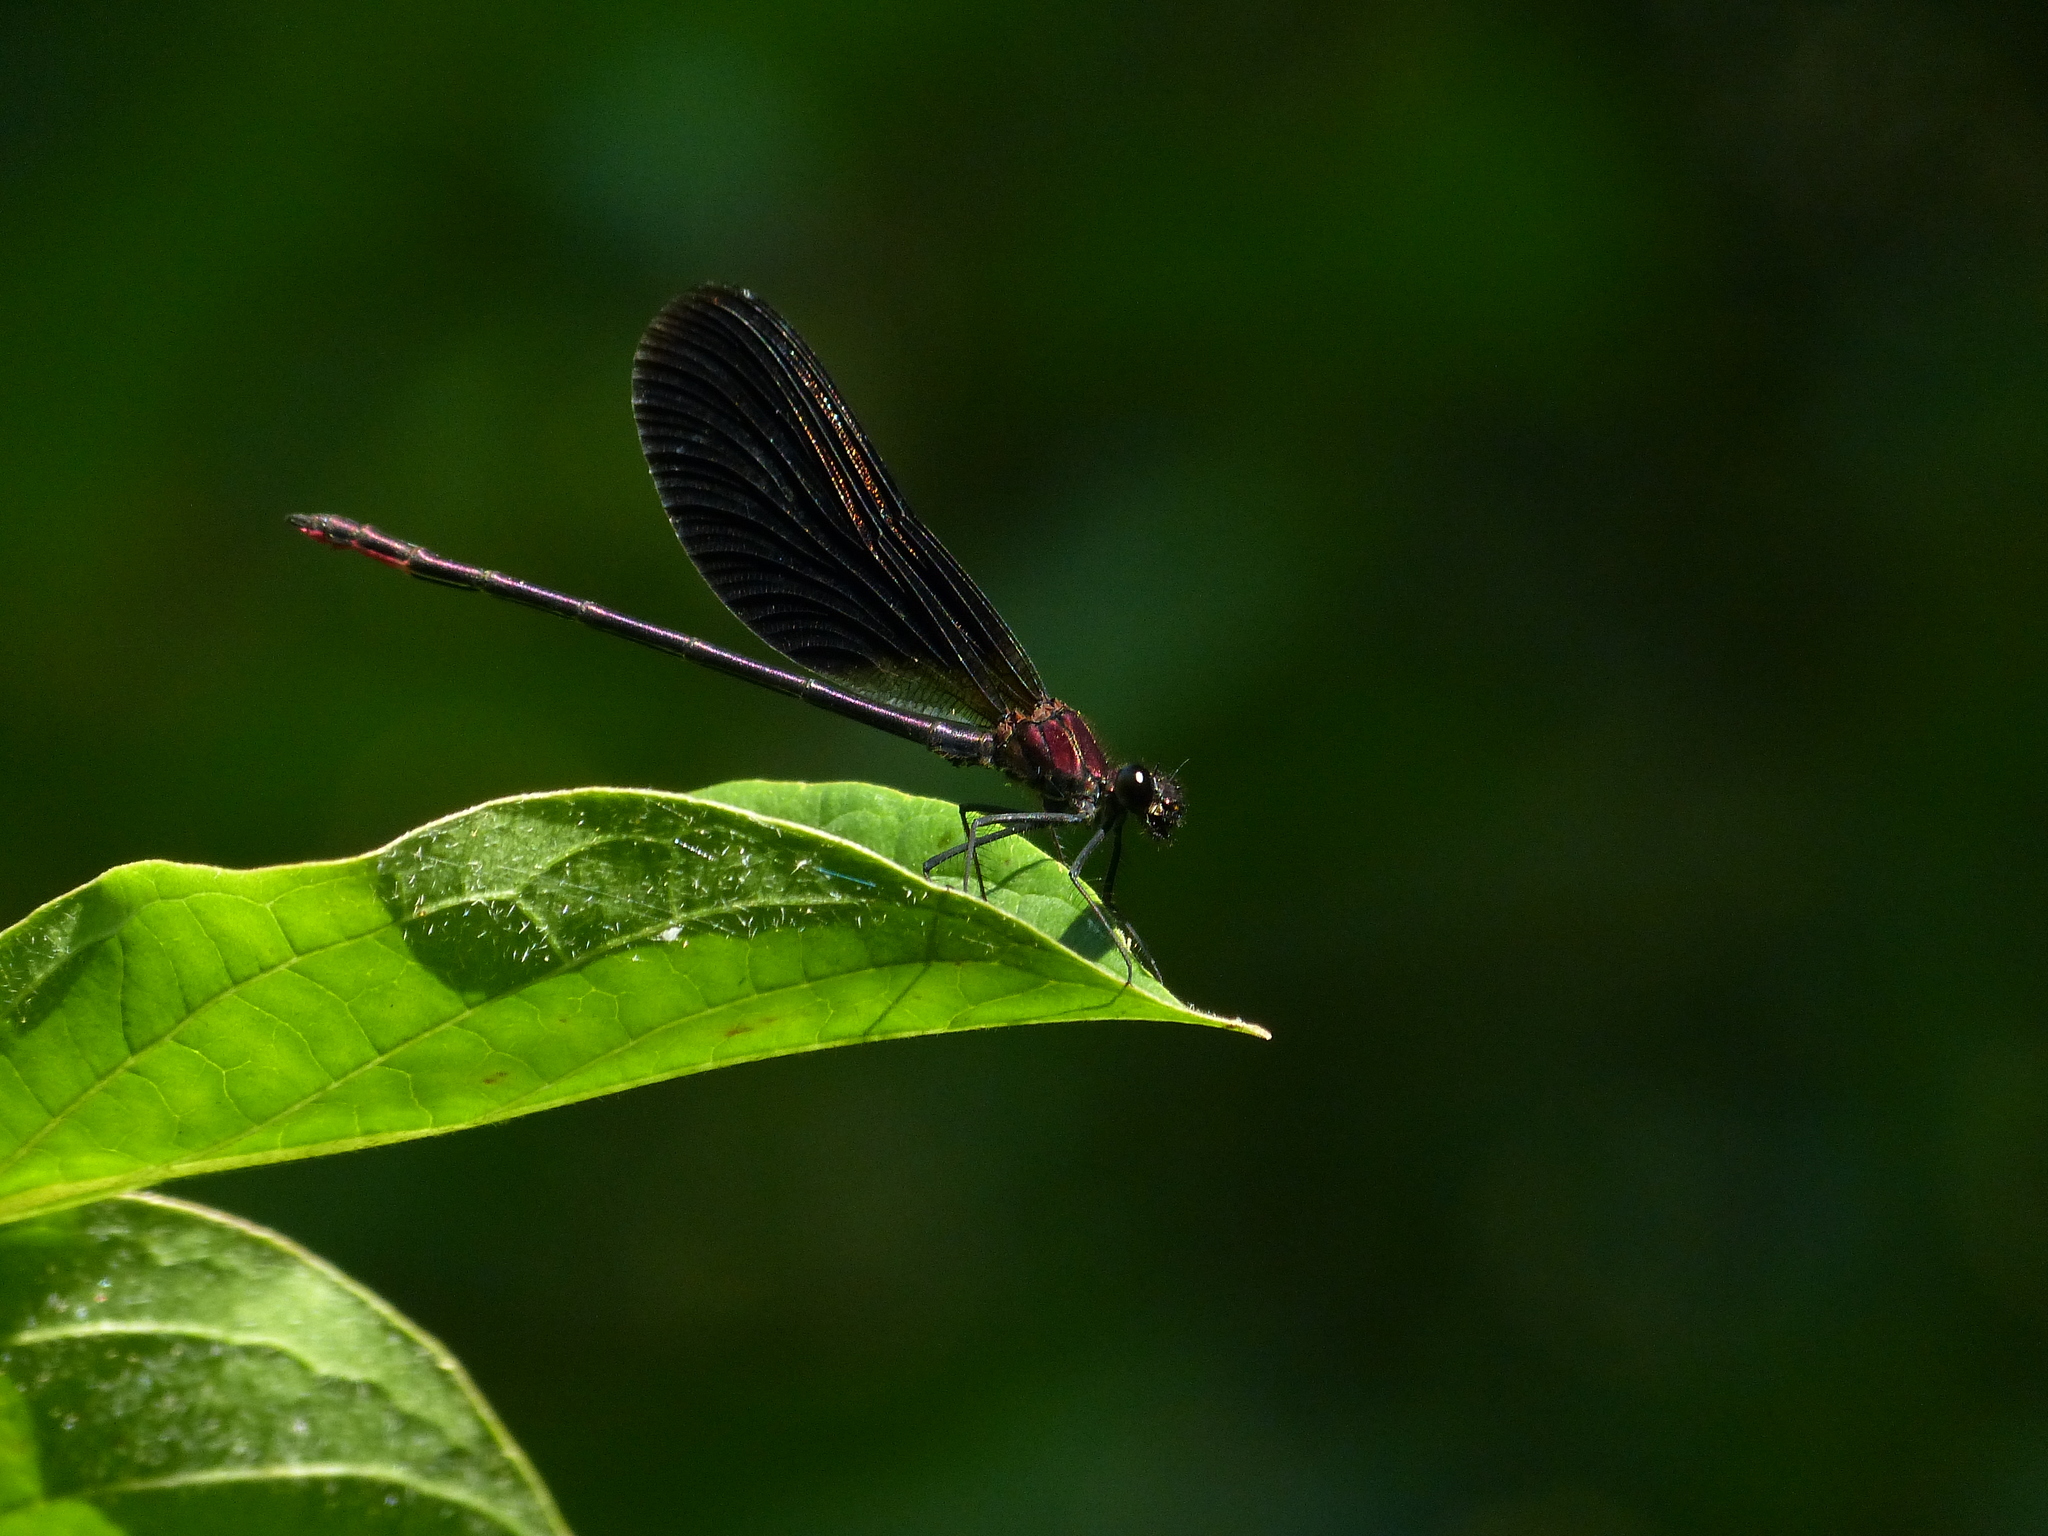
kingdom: Animalia
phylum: Arthropoda
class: Insecta
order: Odonata
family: Calopterygidae
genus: Calopteryx
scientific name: Calopteryx haemorrhoidalis
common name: Copper demoiselle
